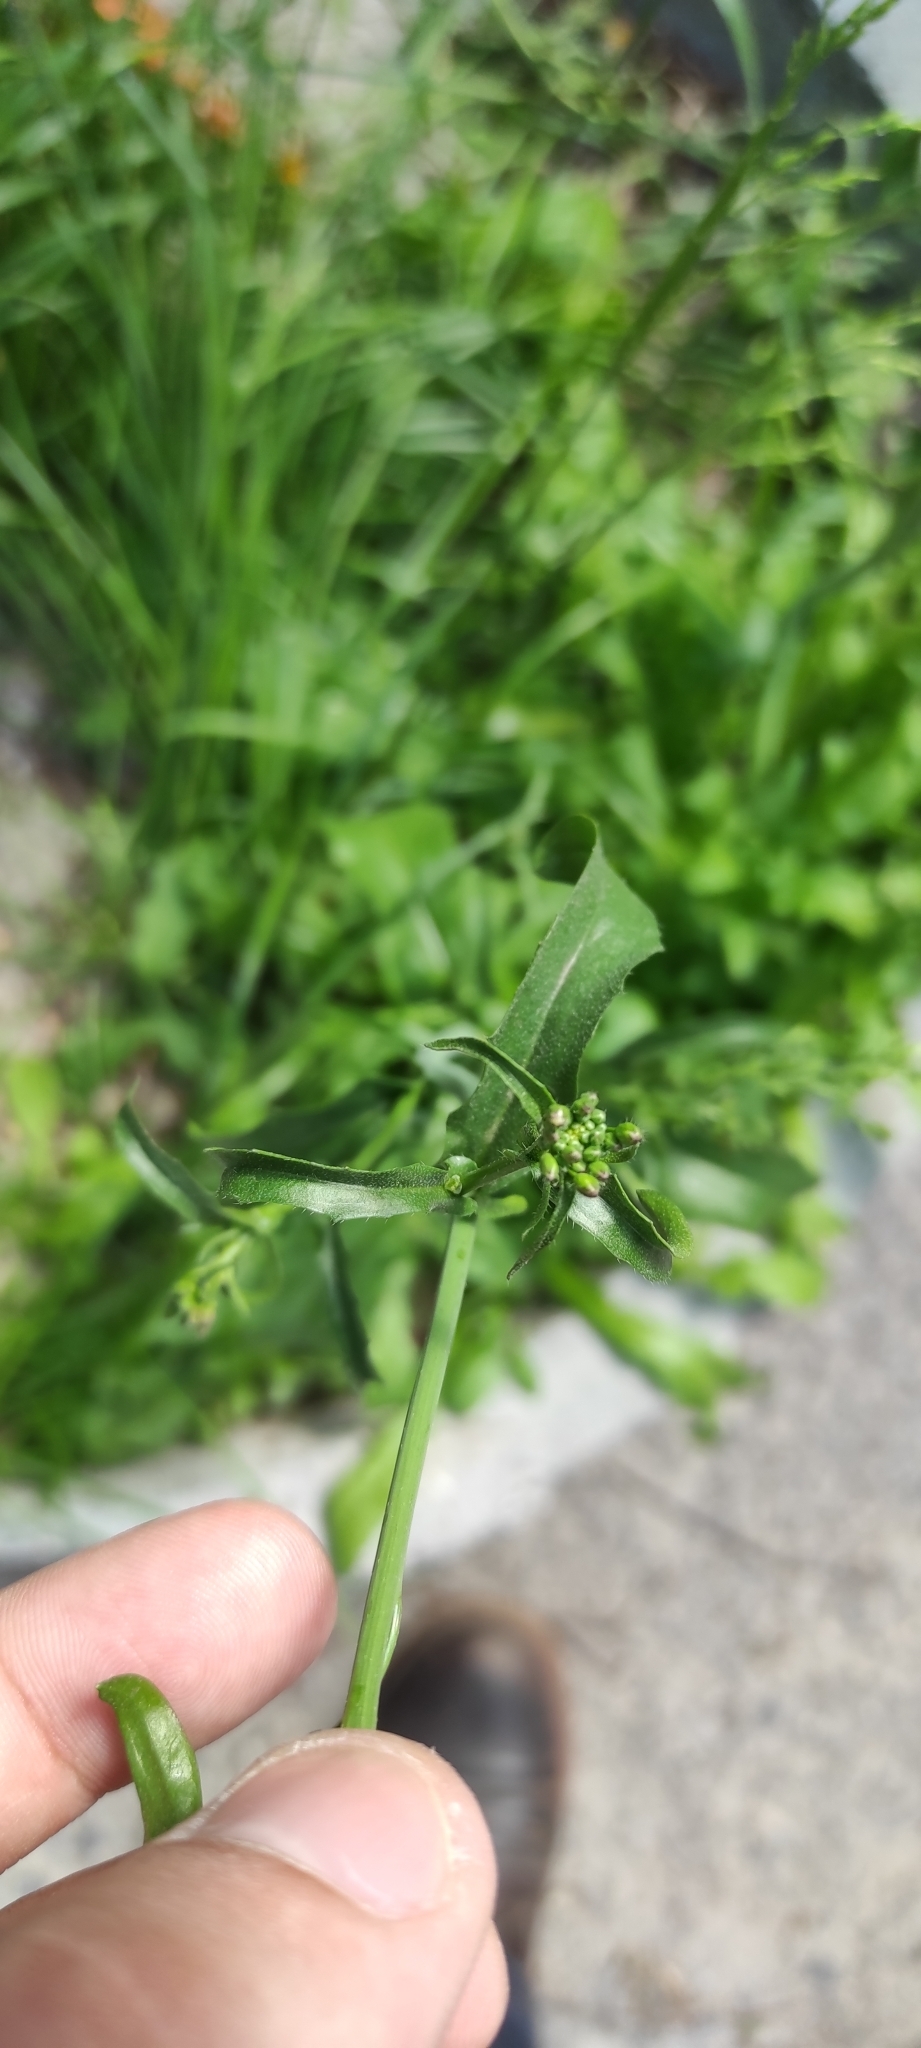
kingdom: Plantae
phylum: Tracheophyta
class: Magnoliopsida
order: Brassicales
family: Brassicaceae
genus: Capsella
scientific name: Capsella bursa-pastoris
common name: Shepherd's purse
